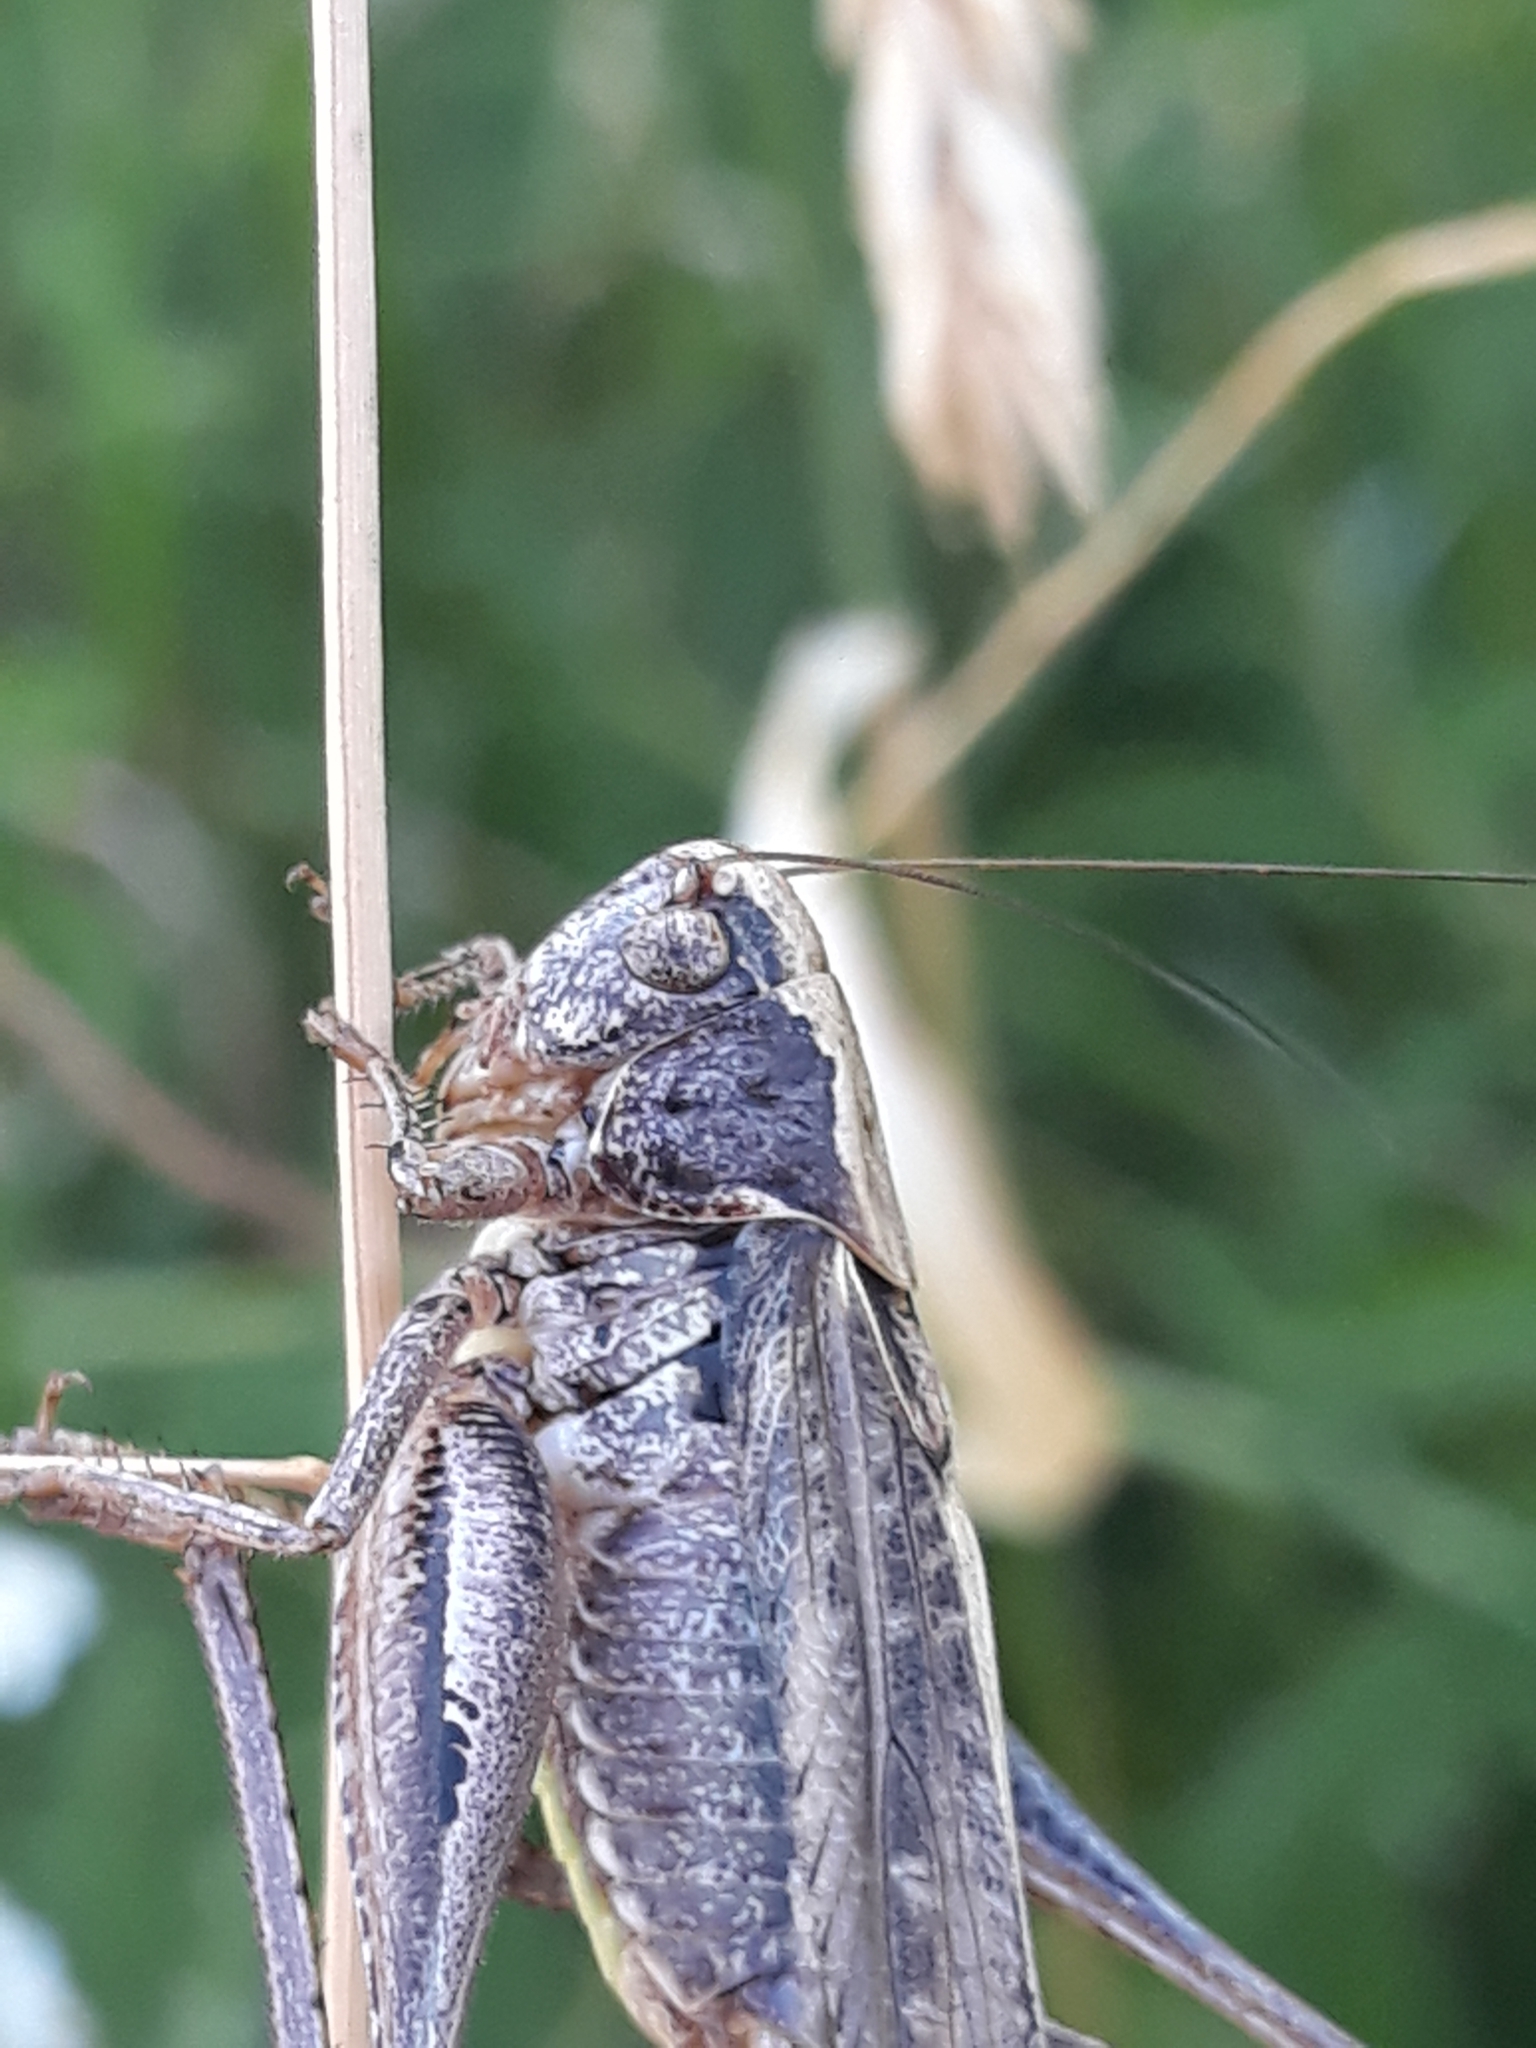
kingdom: Animalia
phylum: Arthropoda
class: Insecta
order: Orthoptera
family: Tettigoniidae
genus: Platycleis
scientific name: Platycleis albopunctata
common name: Grey bush-cricket
